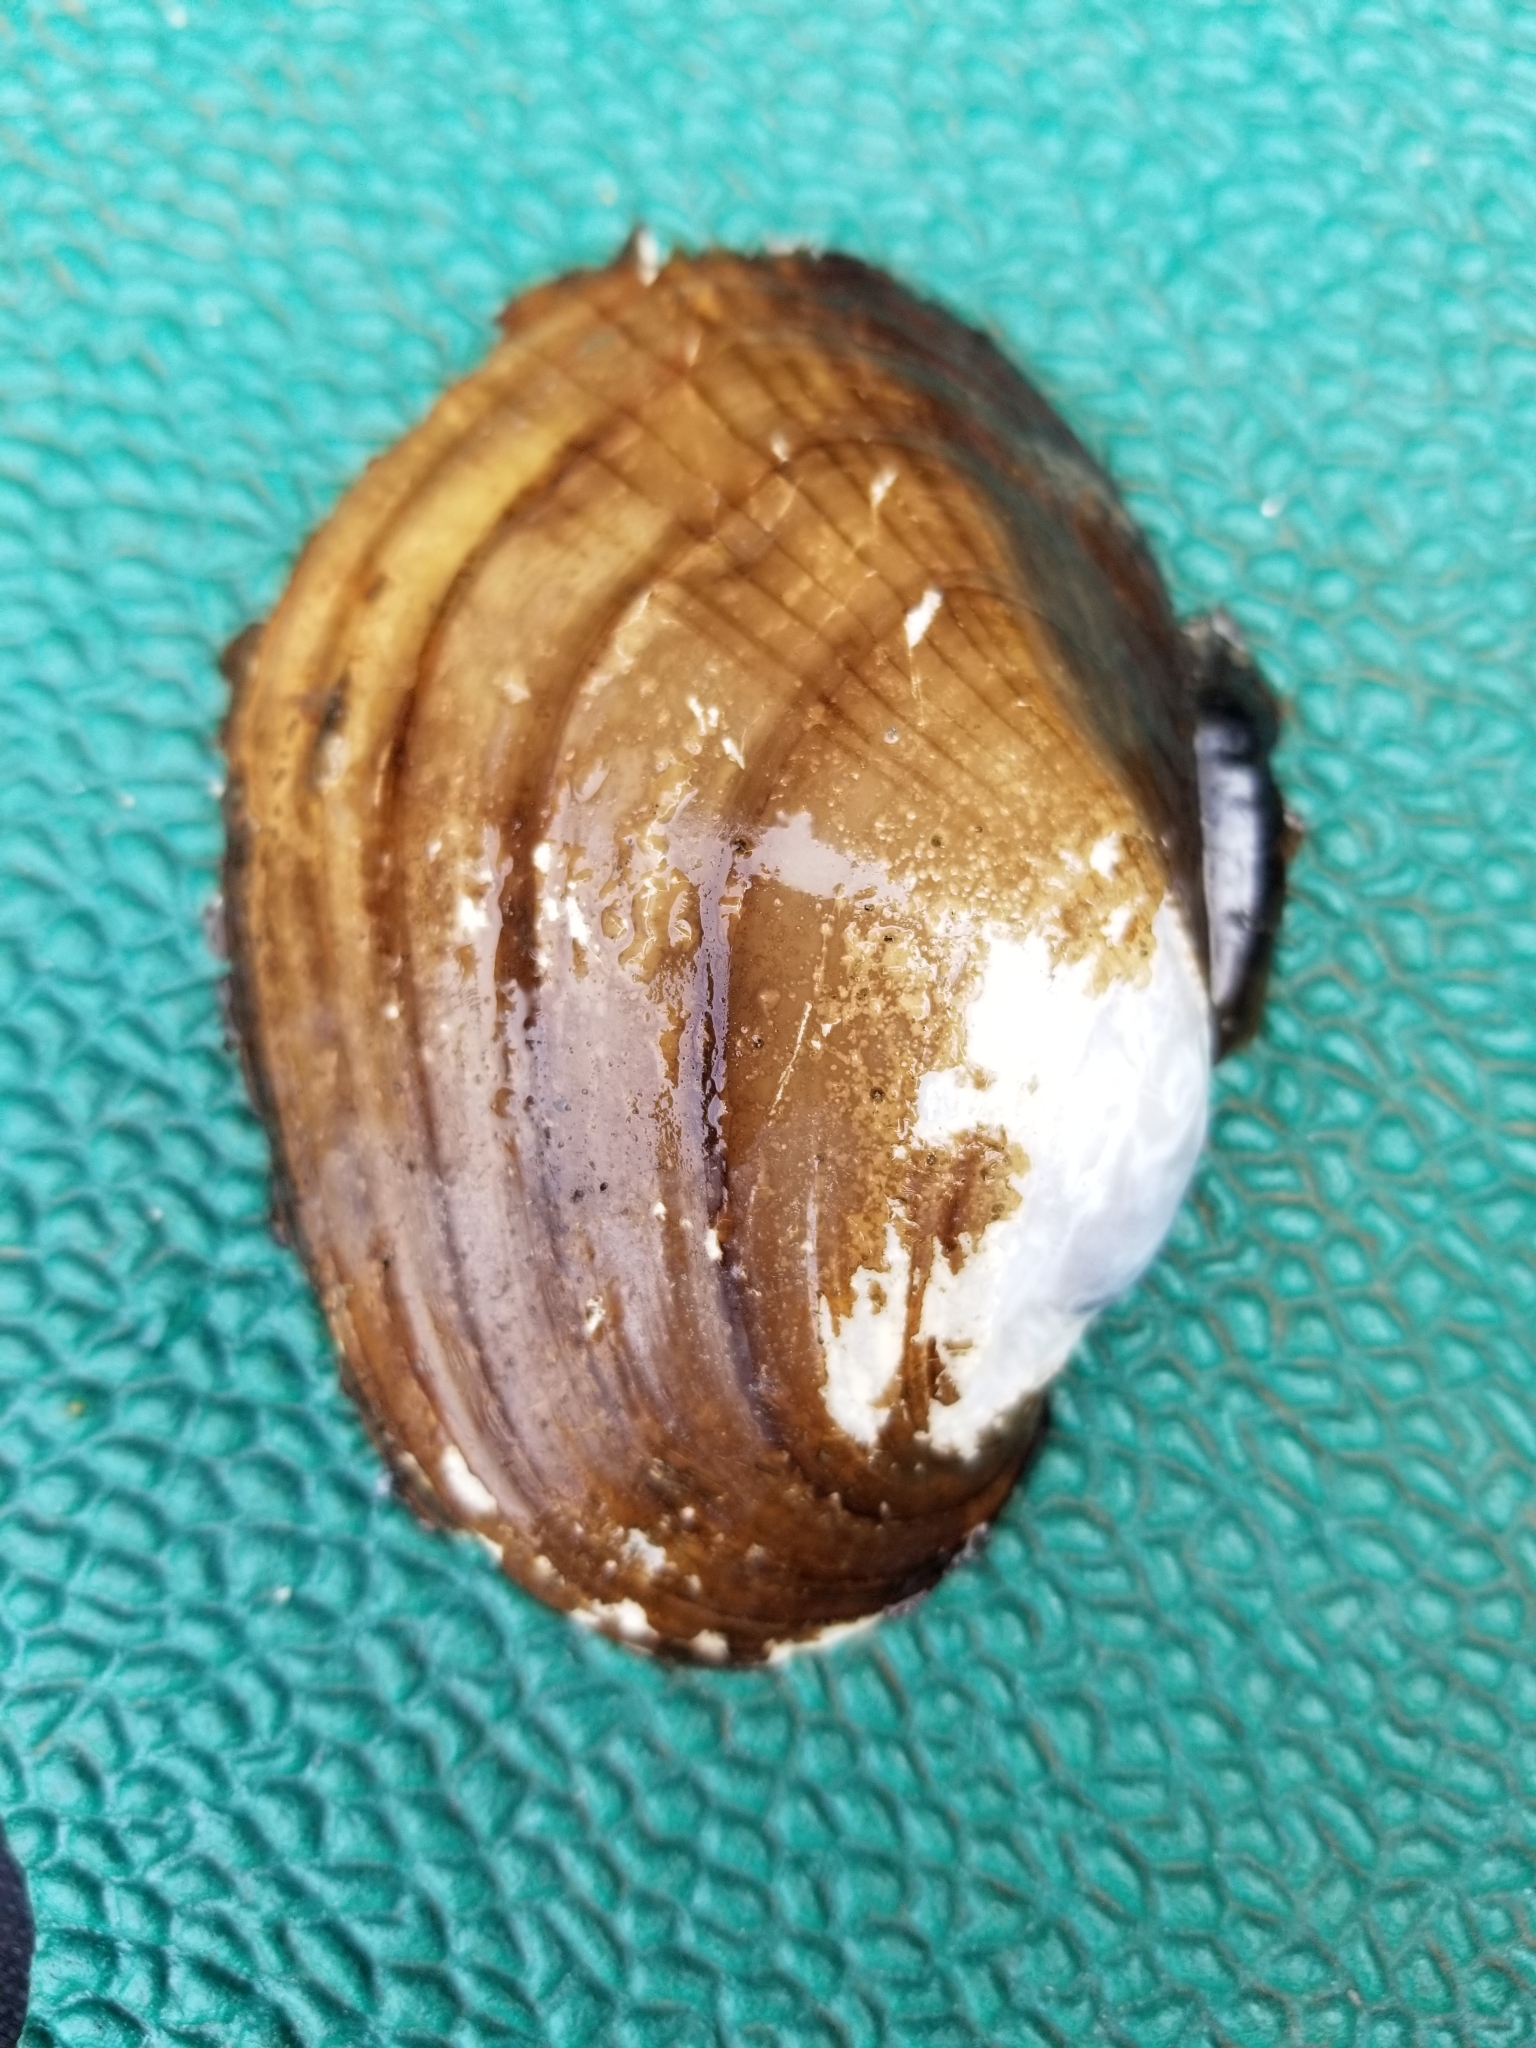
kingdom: Animalia
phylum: Mollusca
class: Bivalvia
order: Unionida
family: Unionidae
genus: Lampsilis
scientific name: Lampsilis cardium
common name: Plain pocketbook
